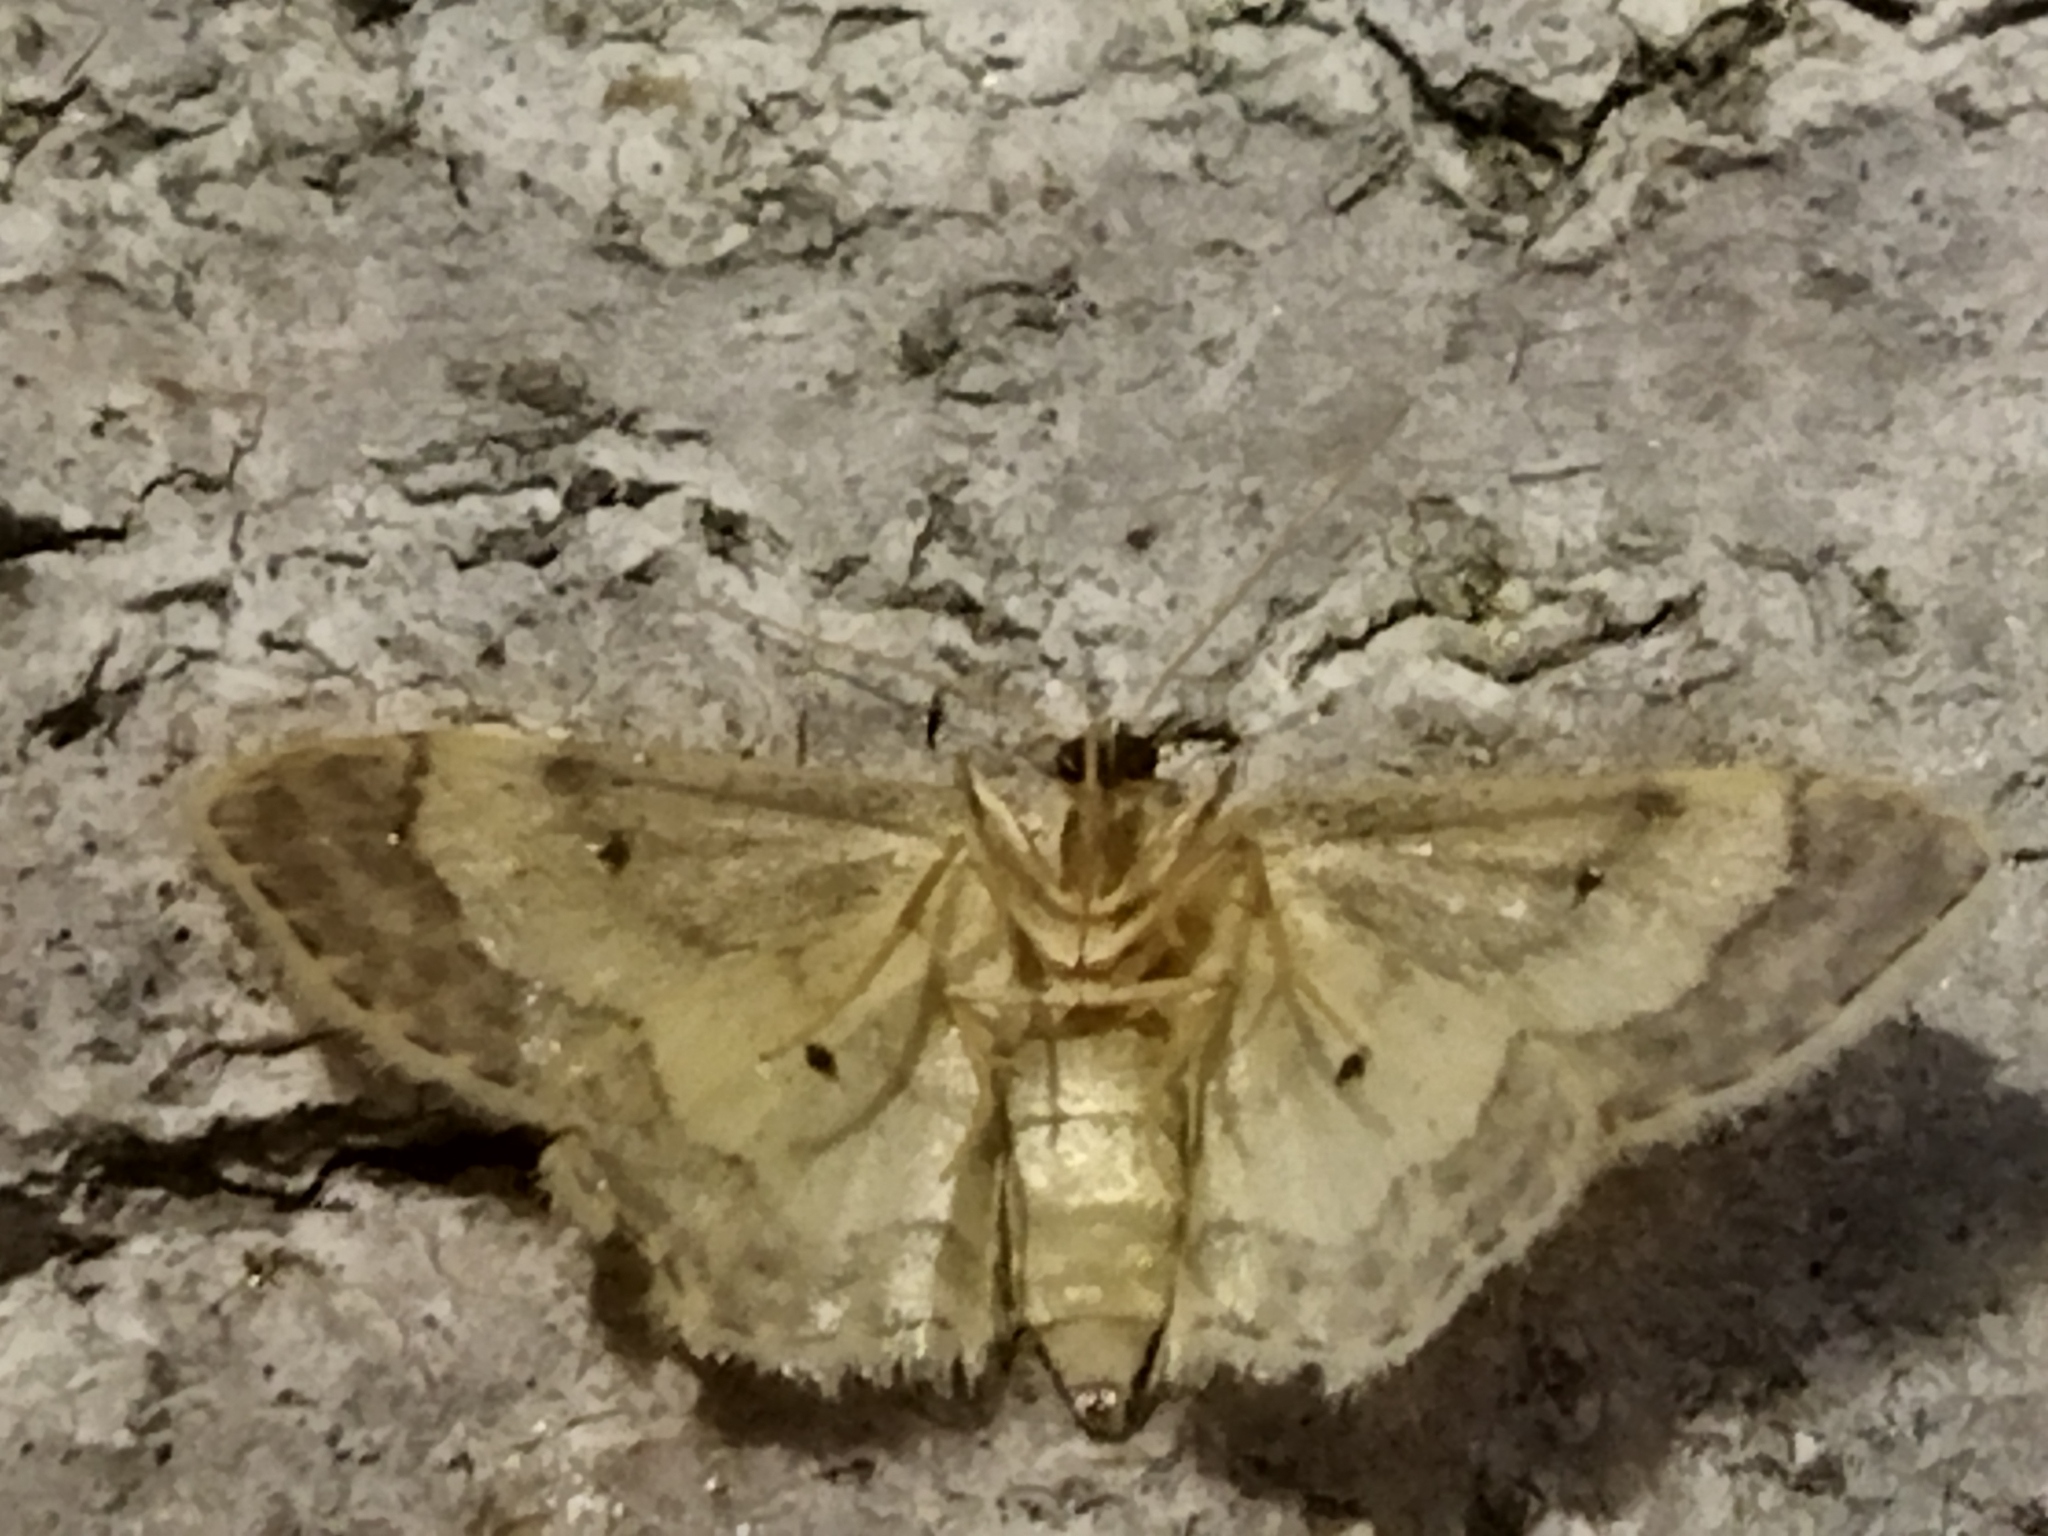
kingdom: Animalia
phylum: Arthropoda
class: Insecta
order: Lepidoptera
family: Geometridae
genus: Idaea
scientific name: Idaea politaria
